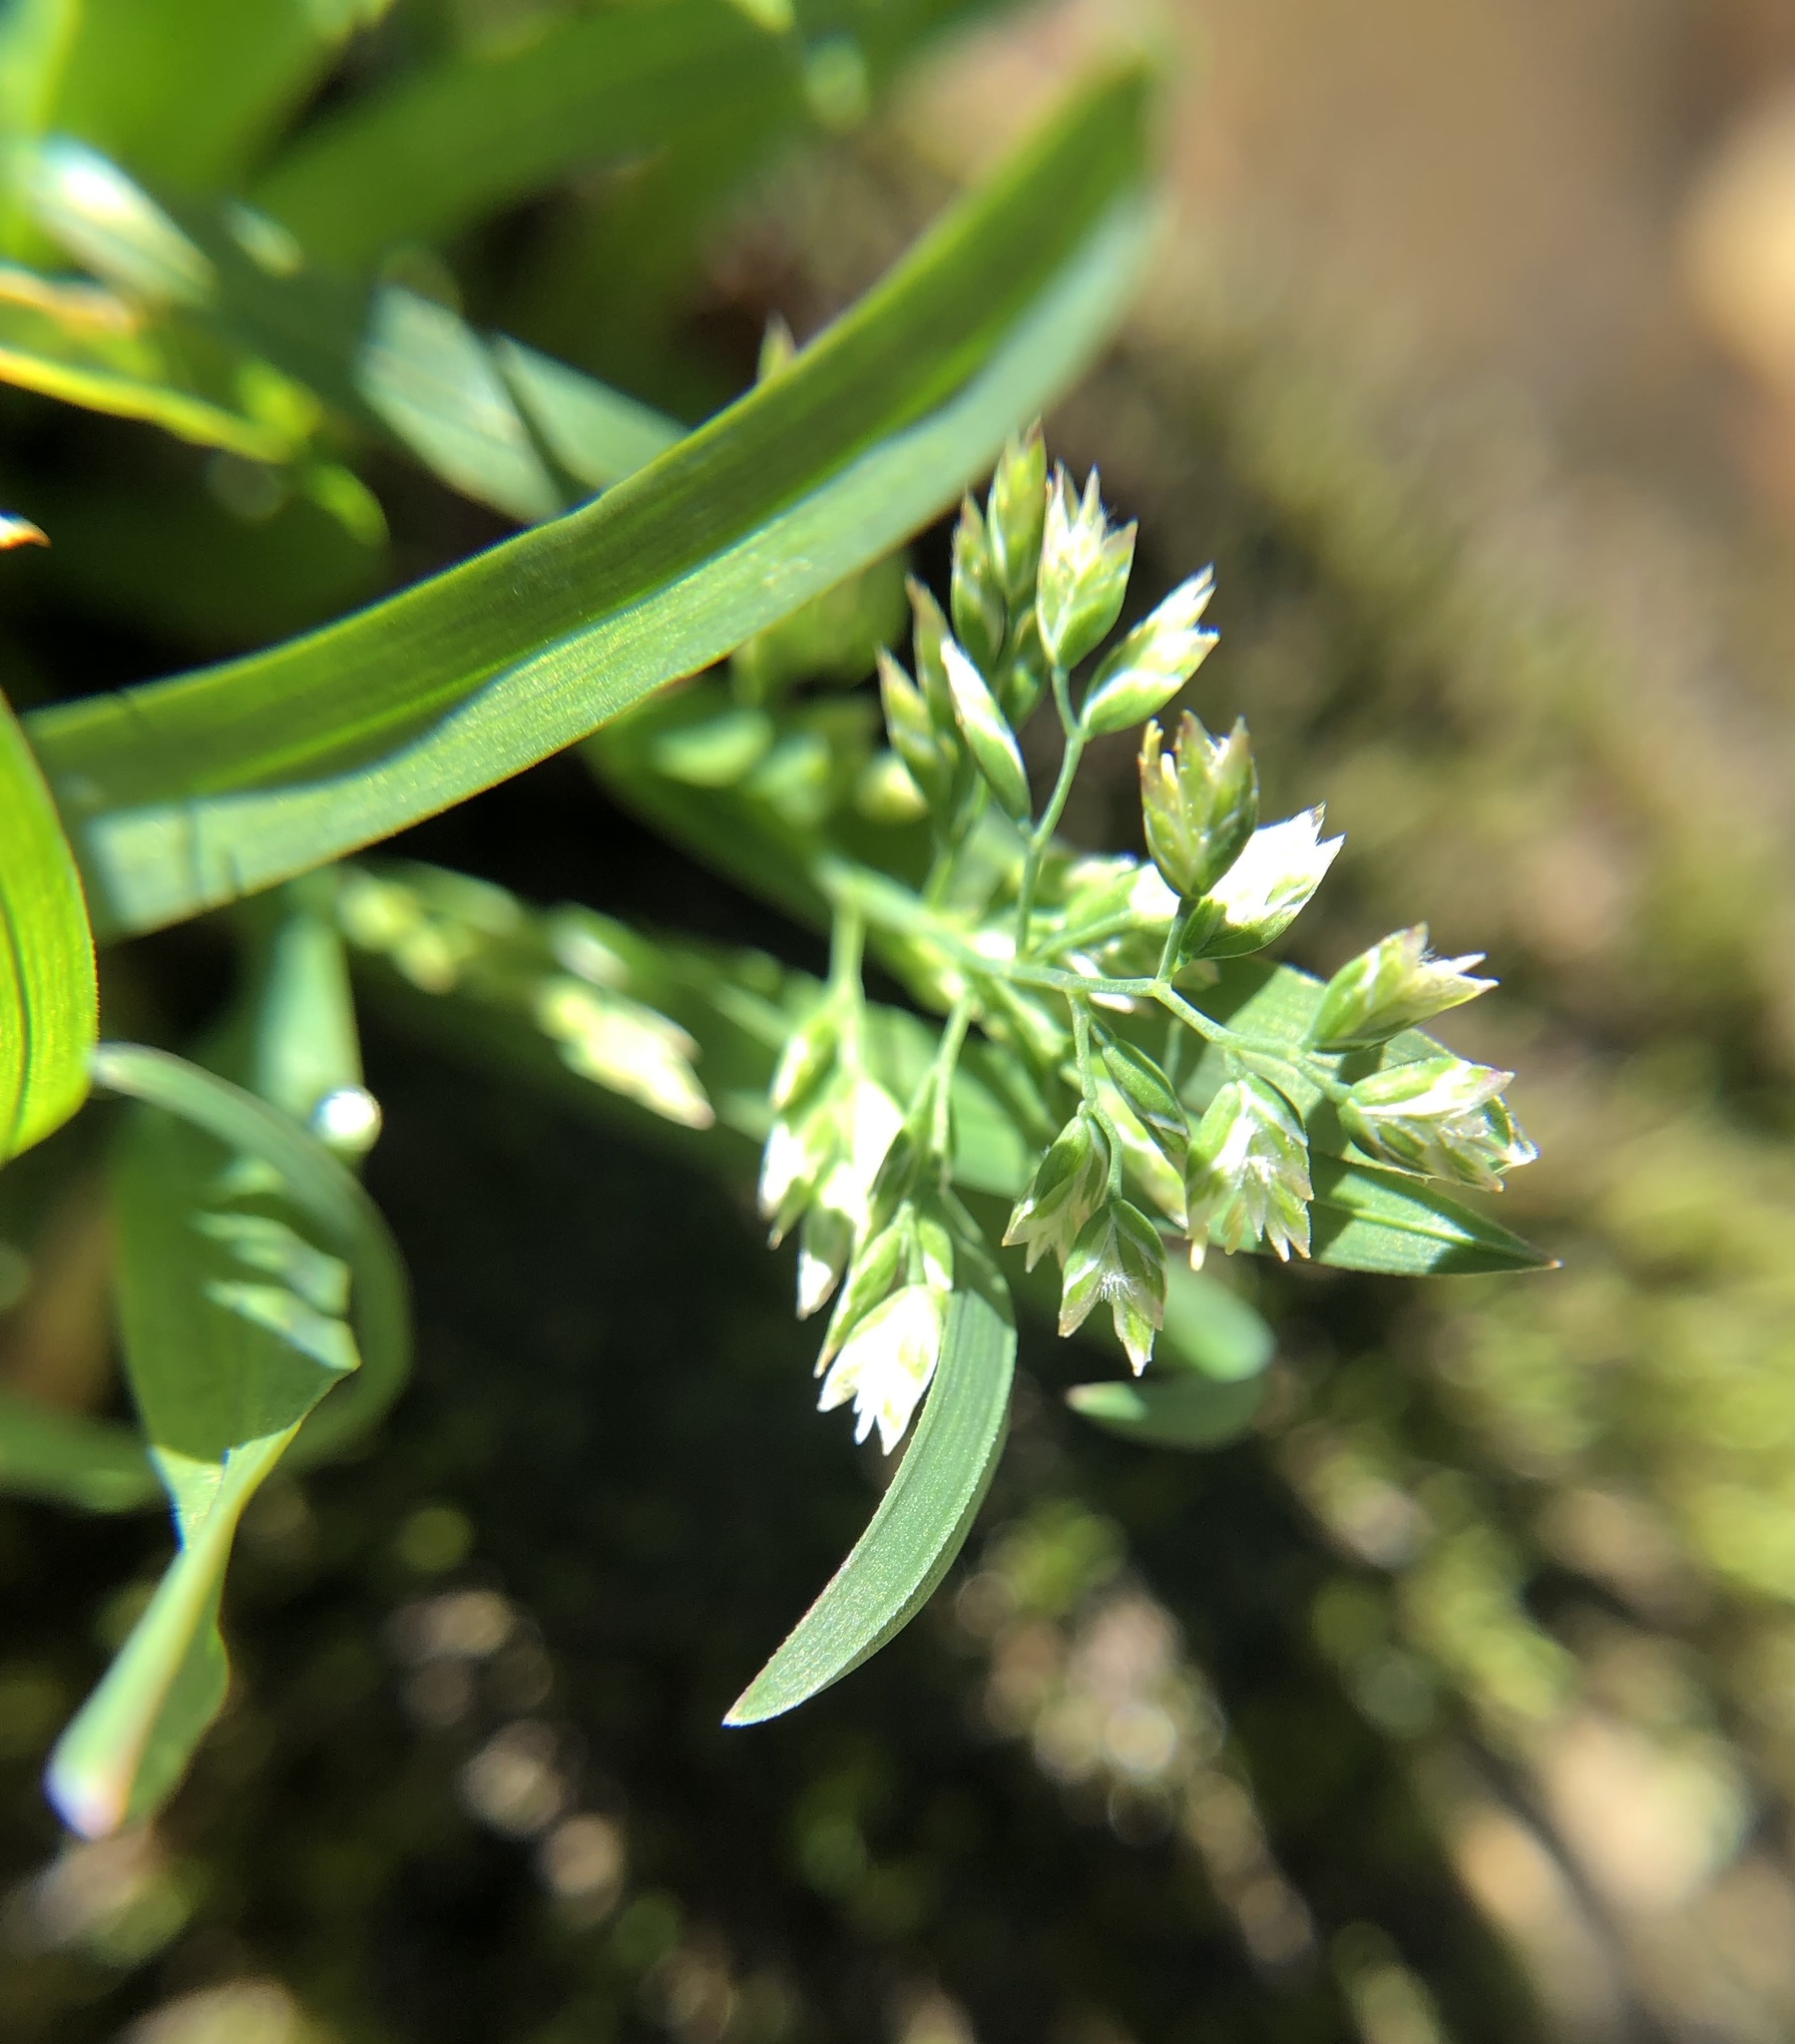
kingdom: Plantae
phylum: Tracheophyta
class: Liliopsida
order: Poales
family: Poaceae
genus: Poa
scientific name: Poa annua
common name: Annual bluegrass
